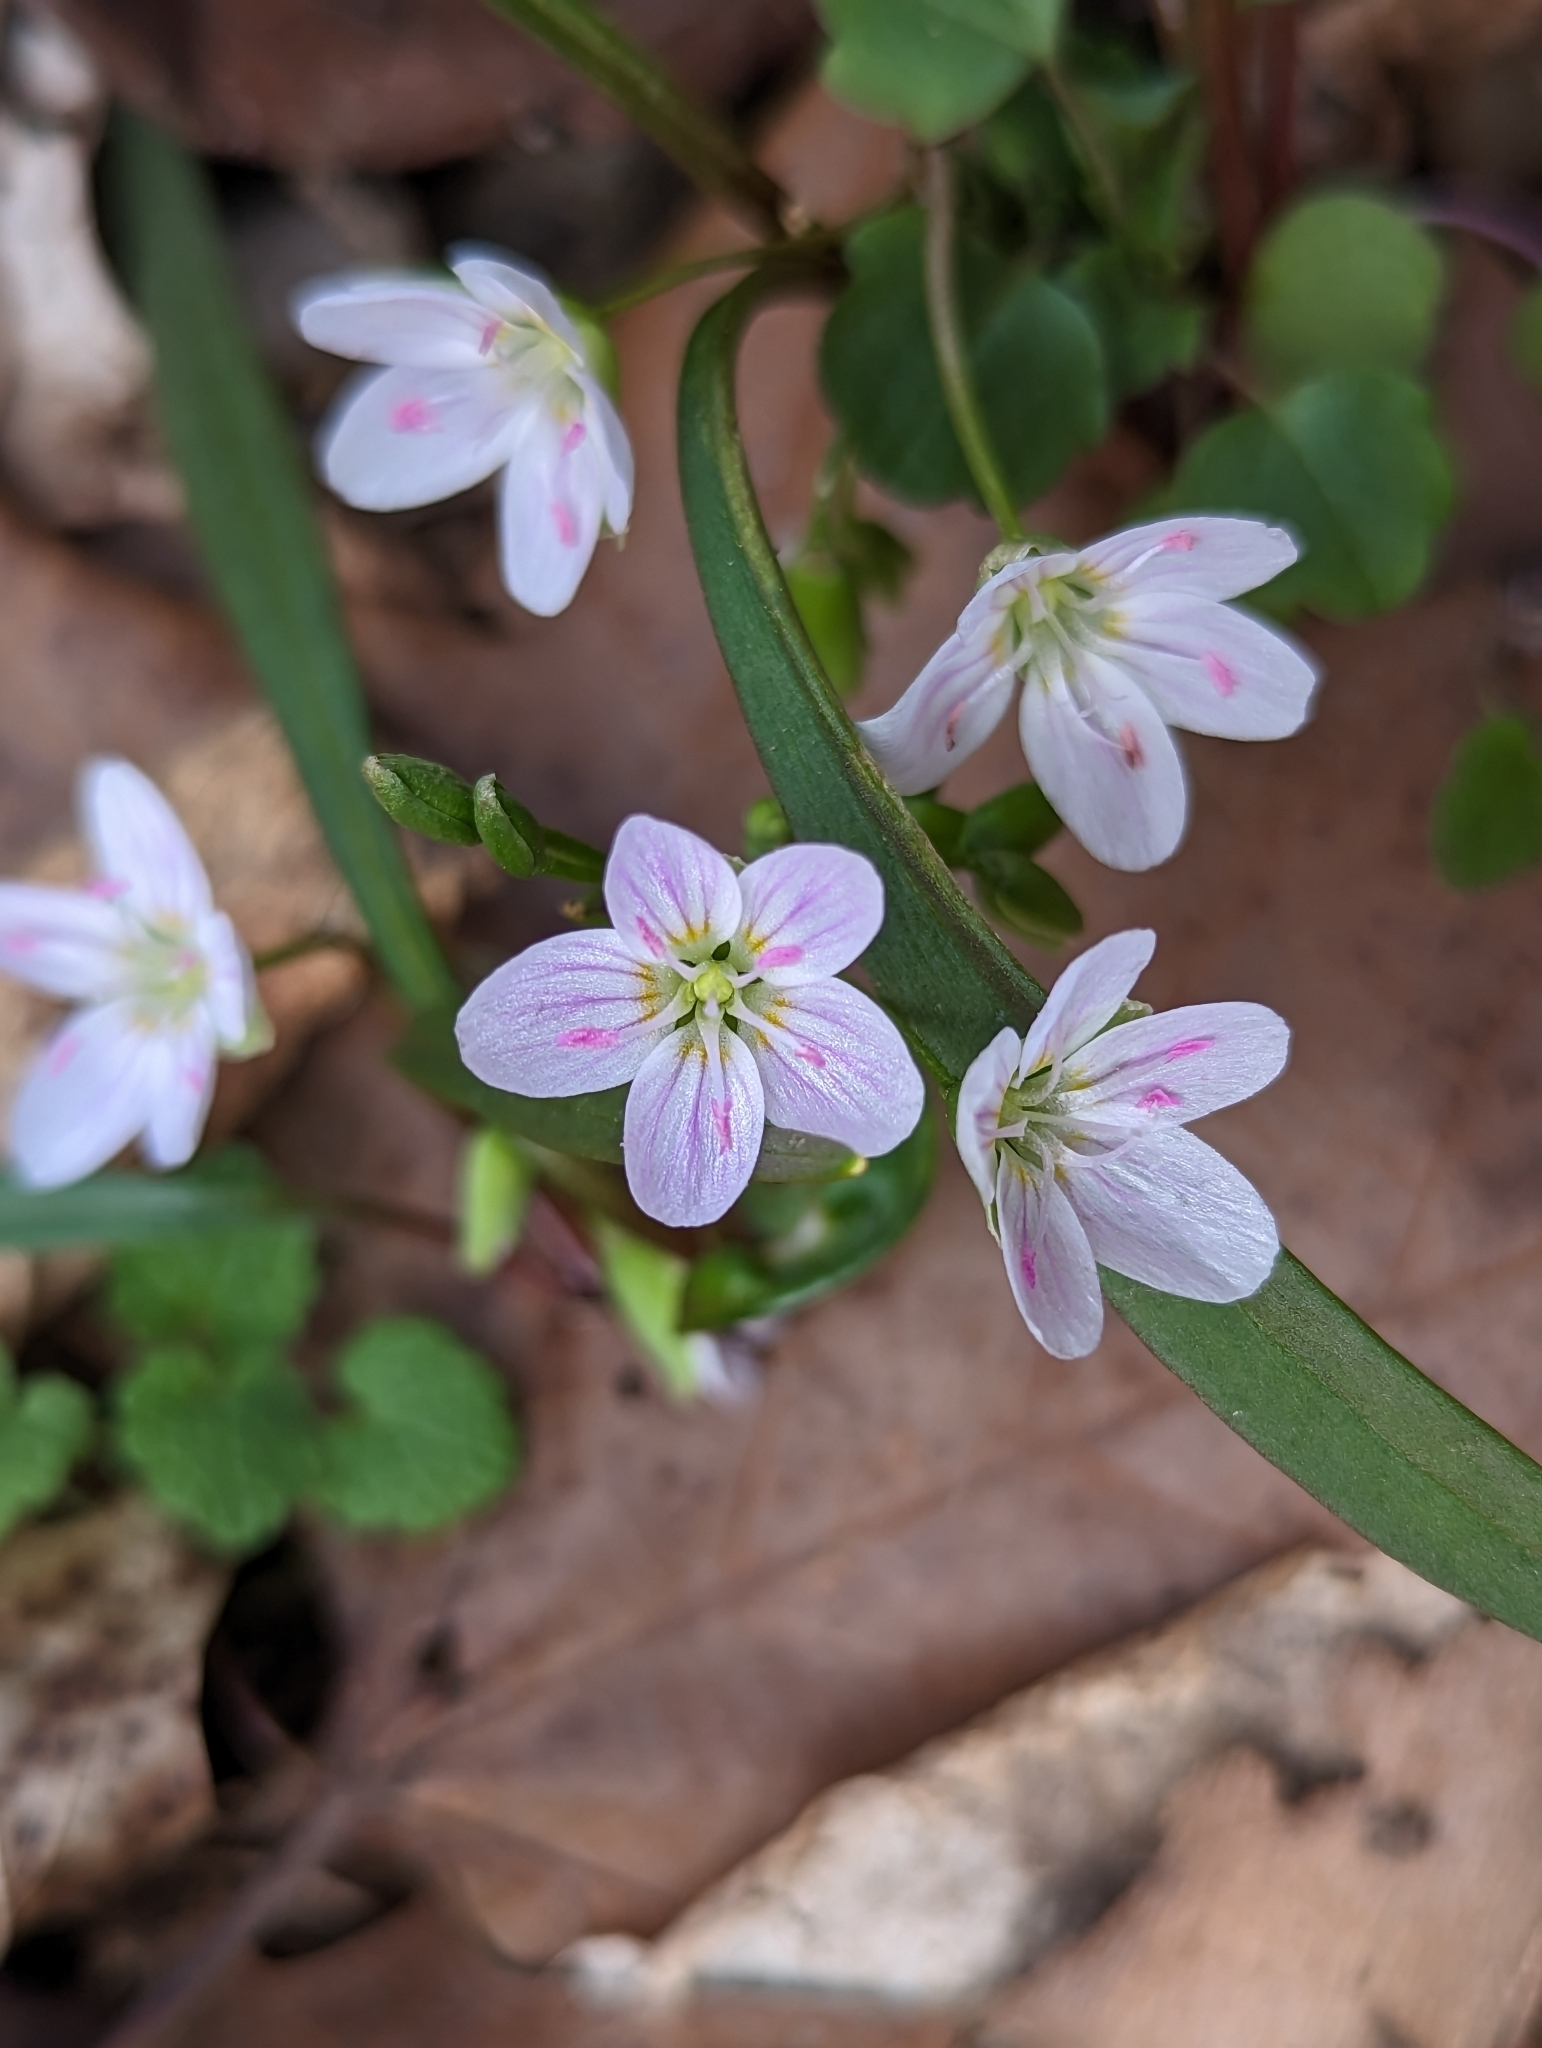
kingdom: Plantae
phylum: Tracheophyta
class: Magnoliopsida
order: Caryophyllales
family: Montiaceae
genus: Claytonia
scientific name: Claytonia virginica
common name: Virginia springbeauty
